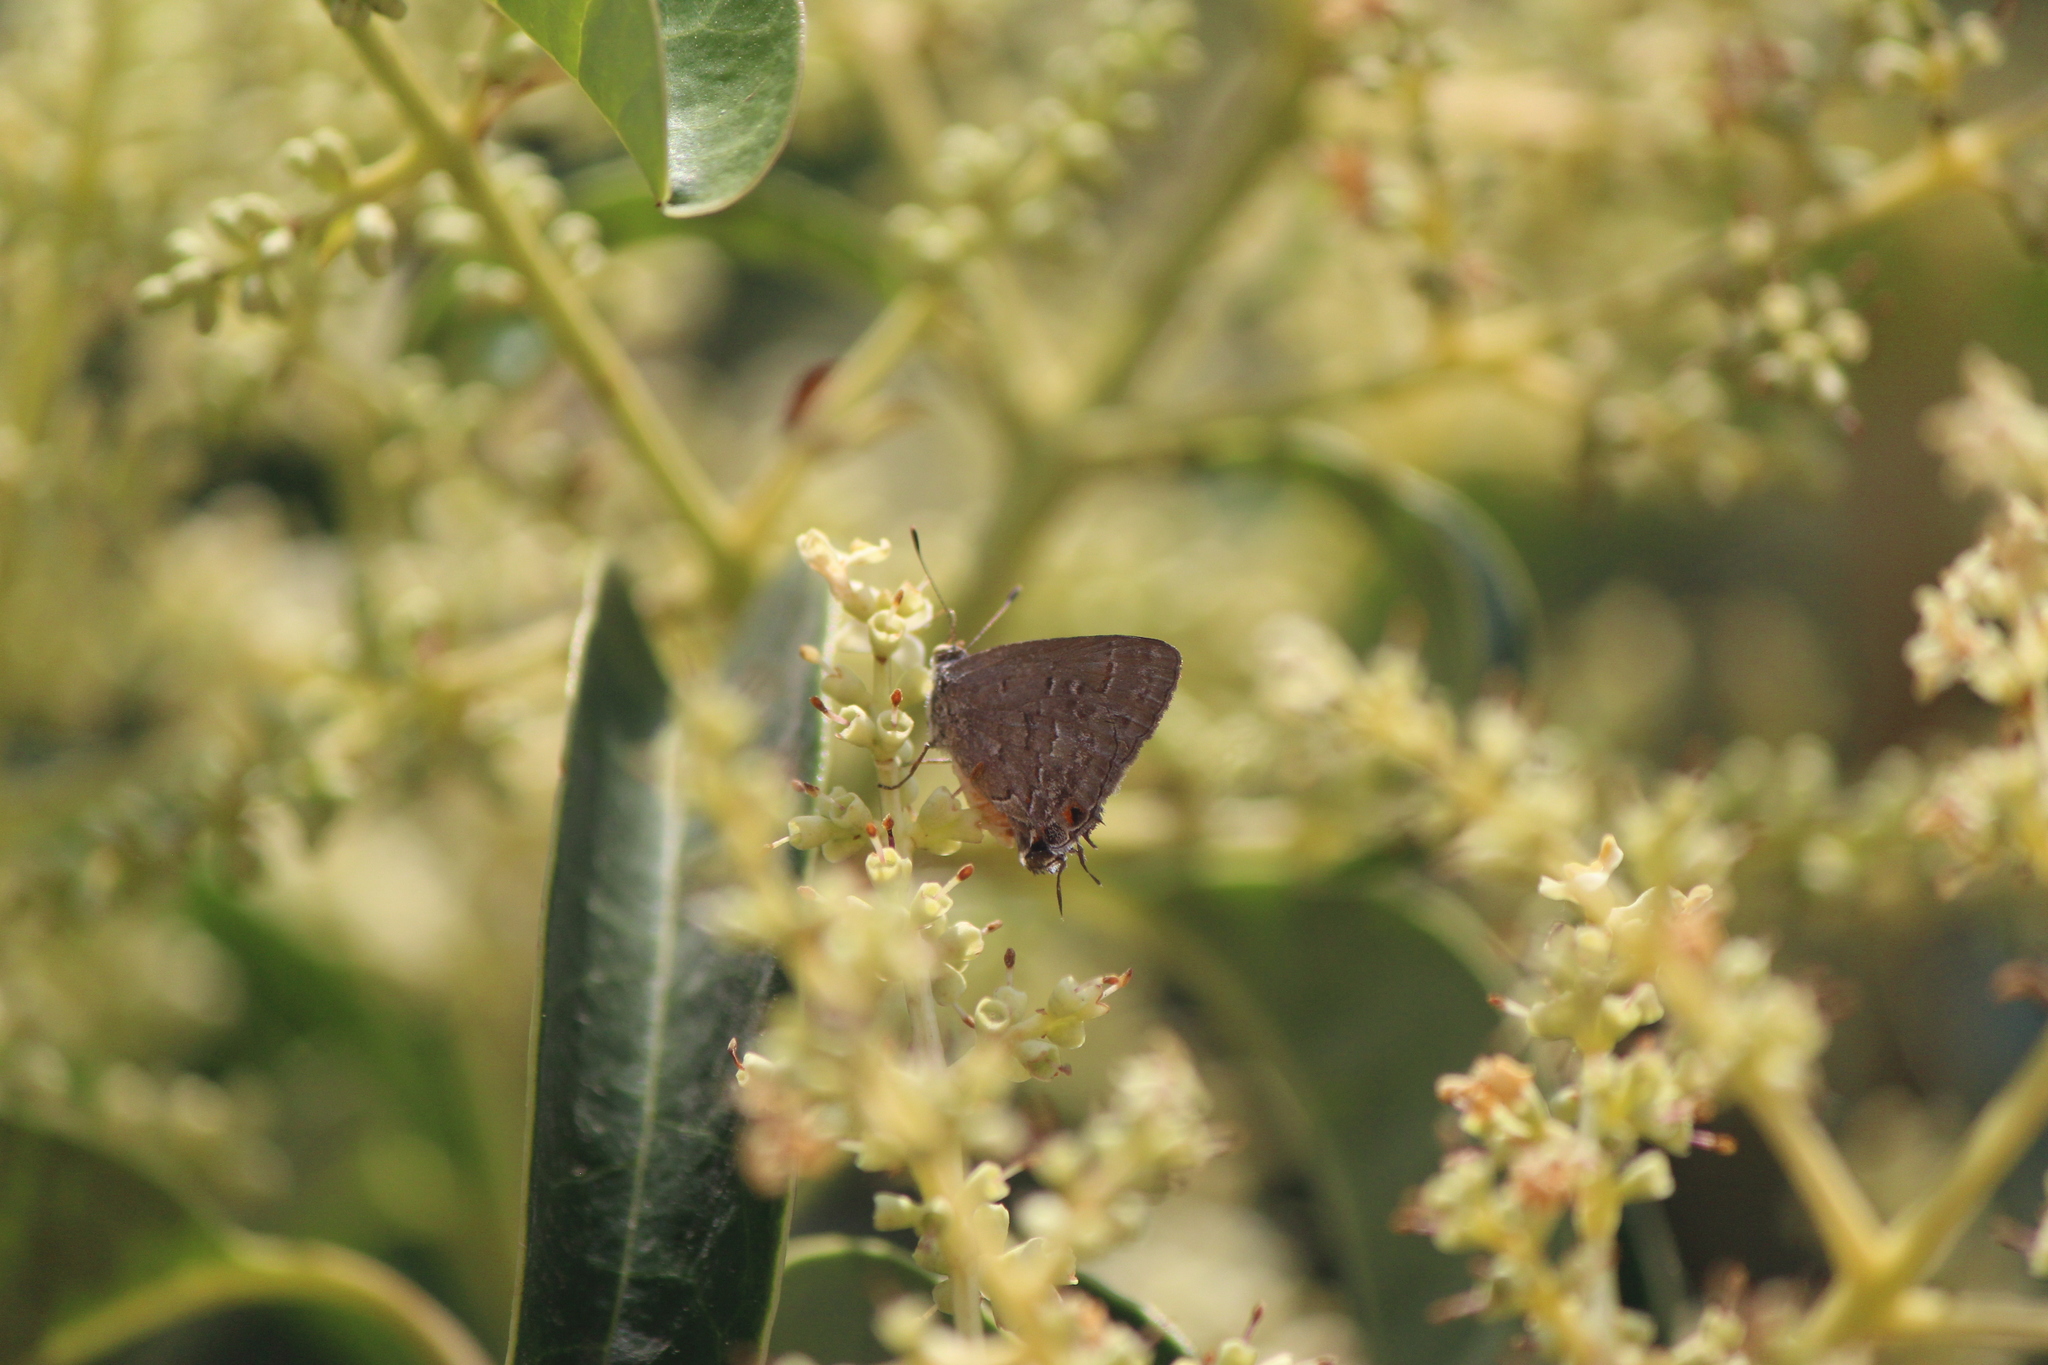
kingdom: Animalia
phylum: Arthropoda
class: Insecta
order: Lepidoptera
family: Lycaenidae
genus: Ministrymon
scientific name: Ministrymon leda
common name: Leda ministreak
